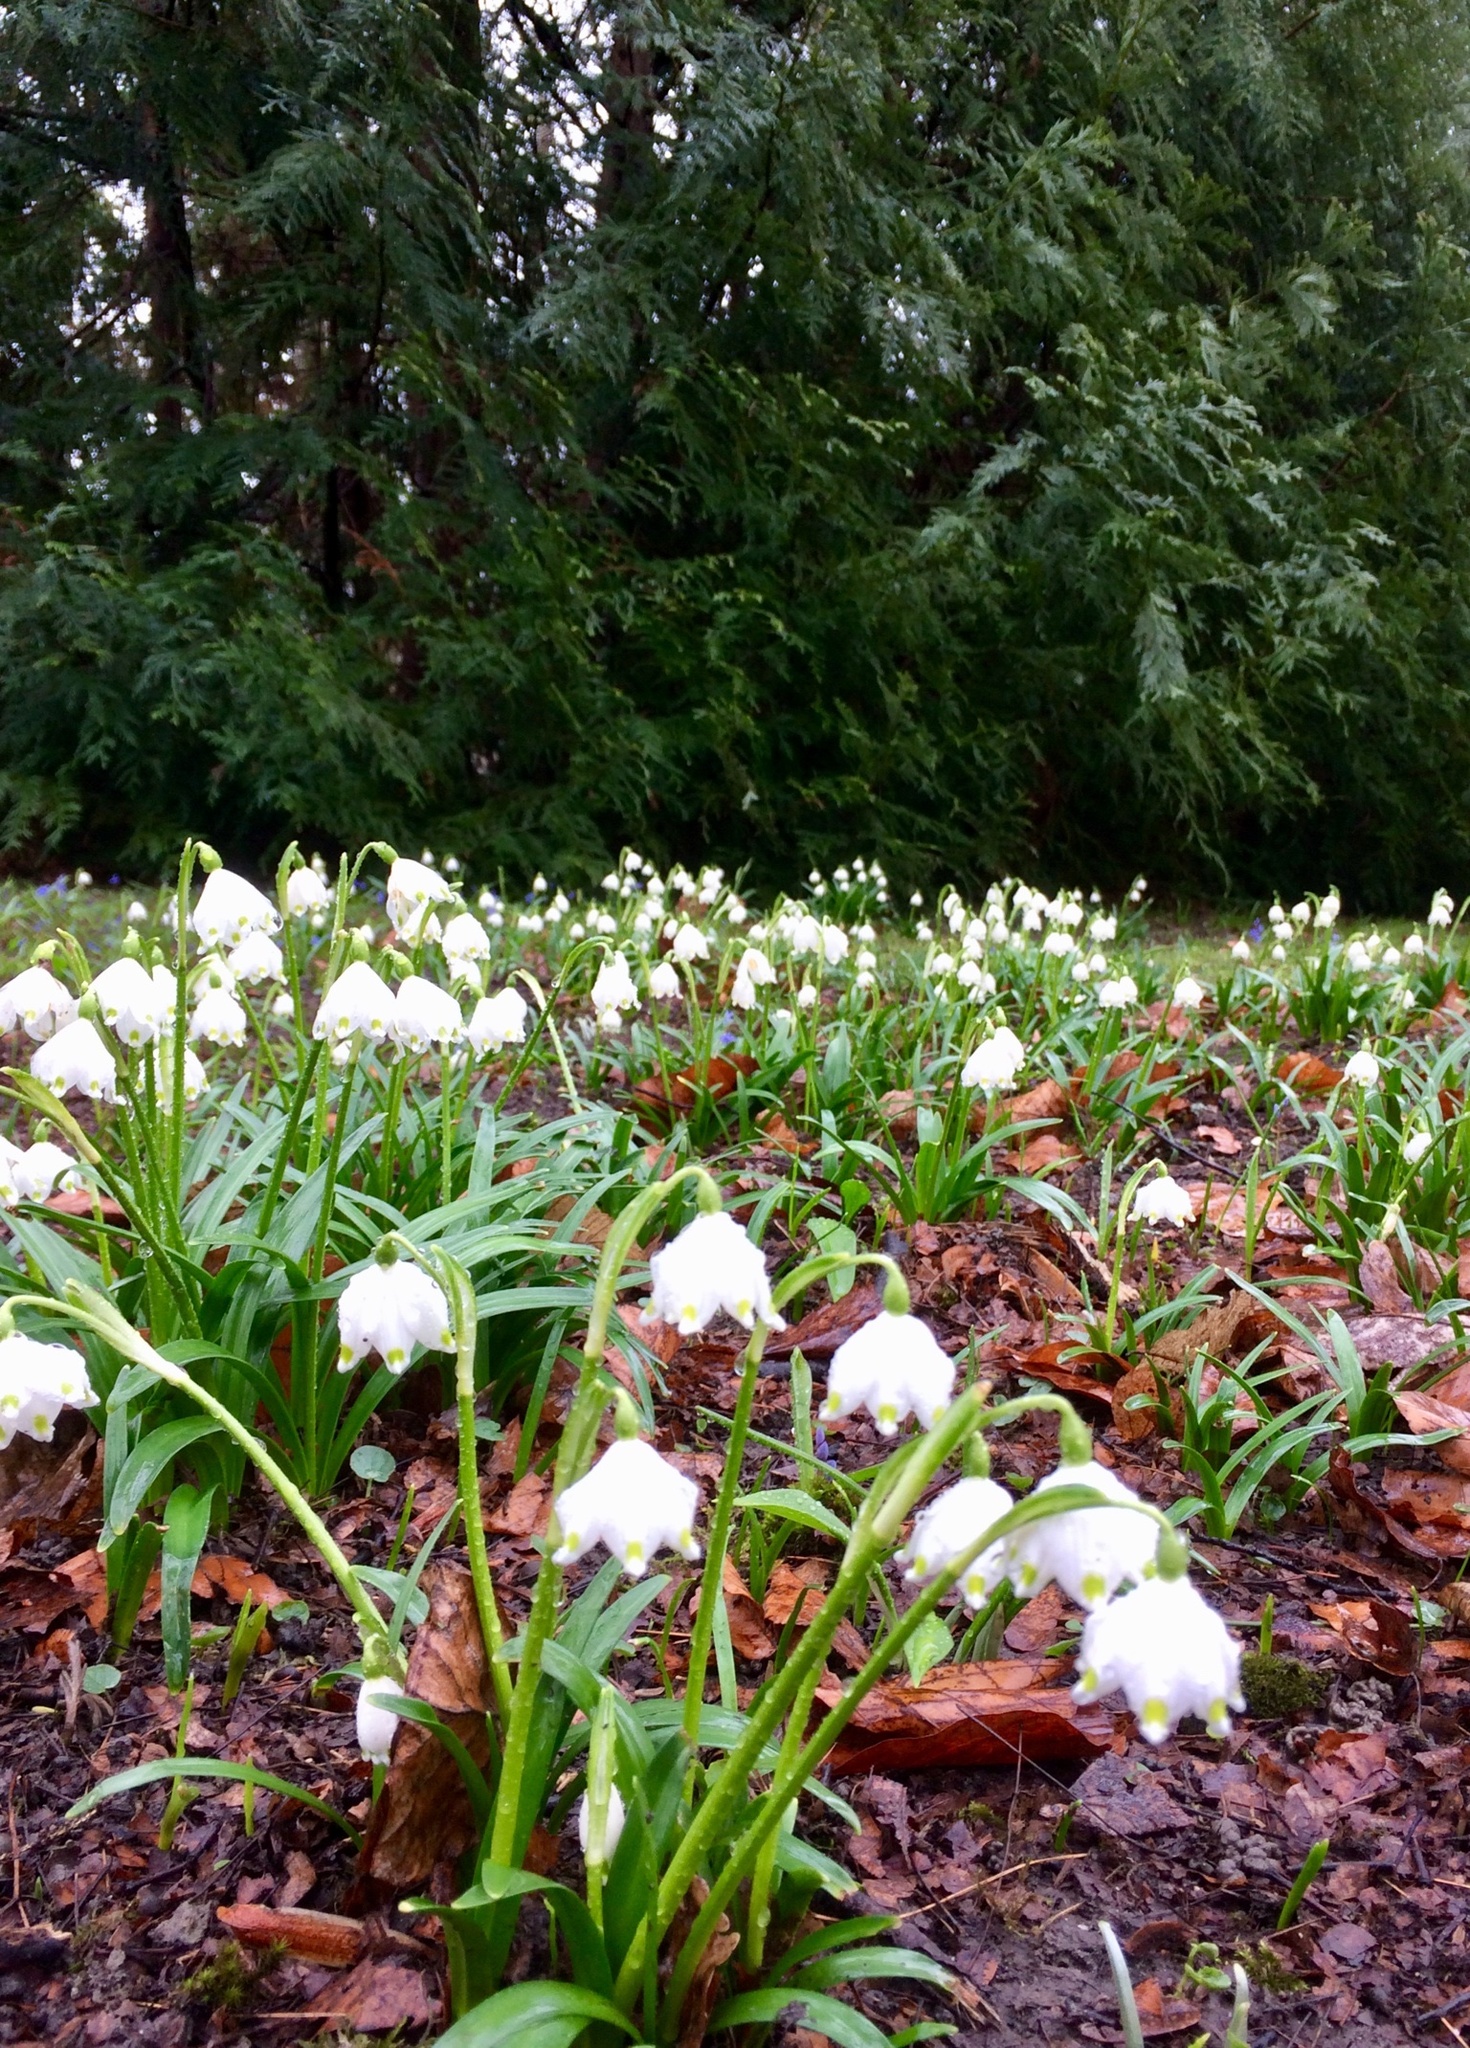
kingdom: Plantae
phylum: Tracheophyta
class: Liliopsida
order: Asparagales
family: Amaryllidaceae
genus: Leucojum
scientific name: Leucojum vernum
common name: Spring snowflake
